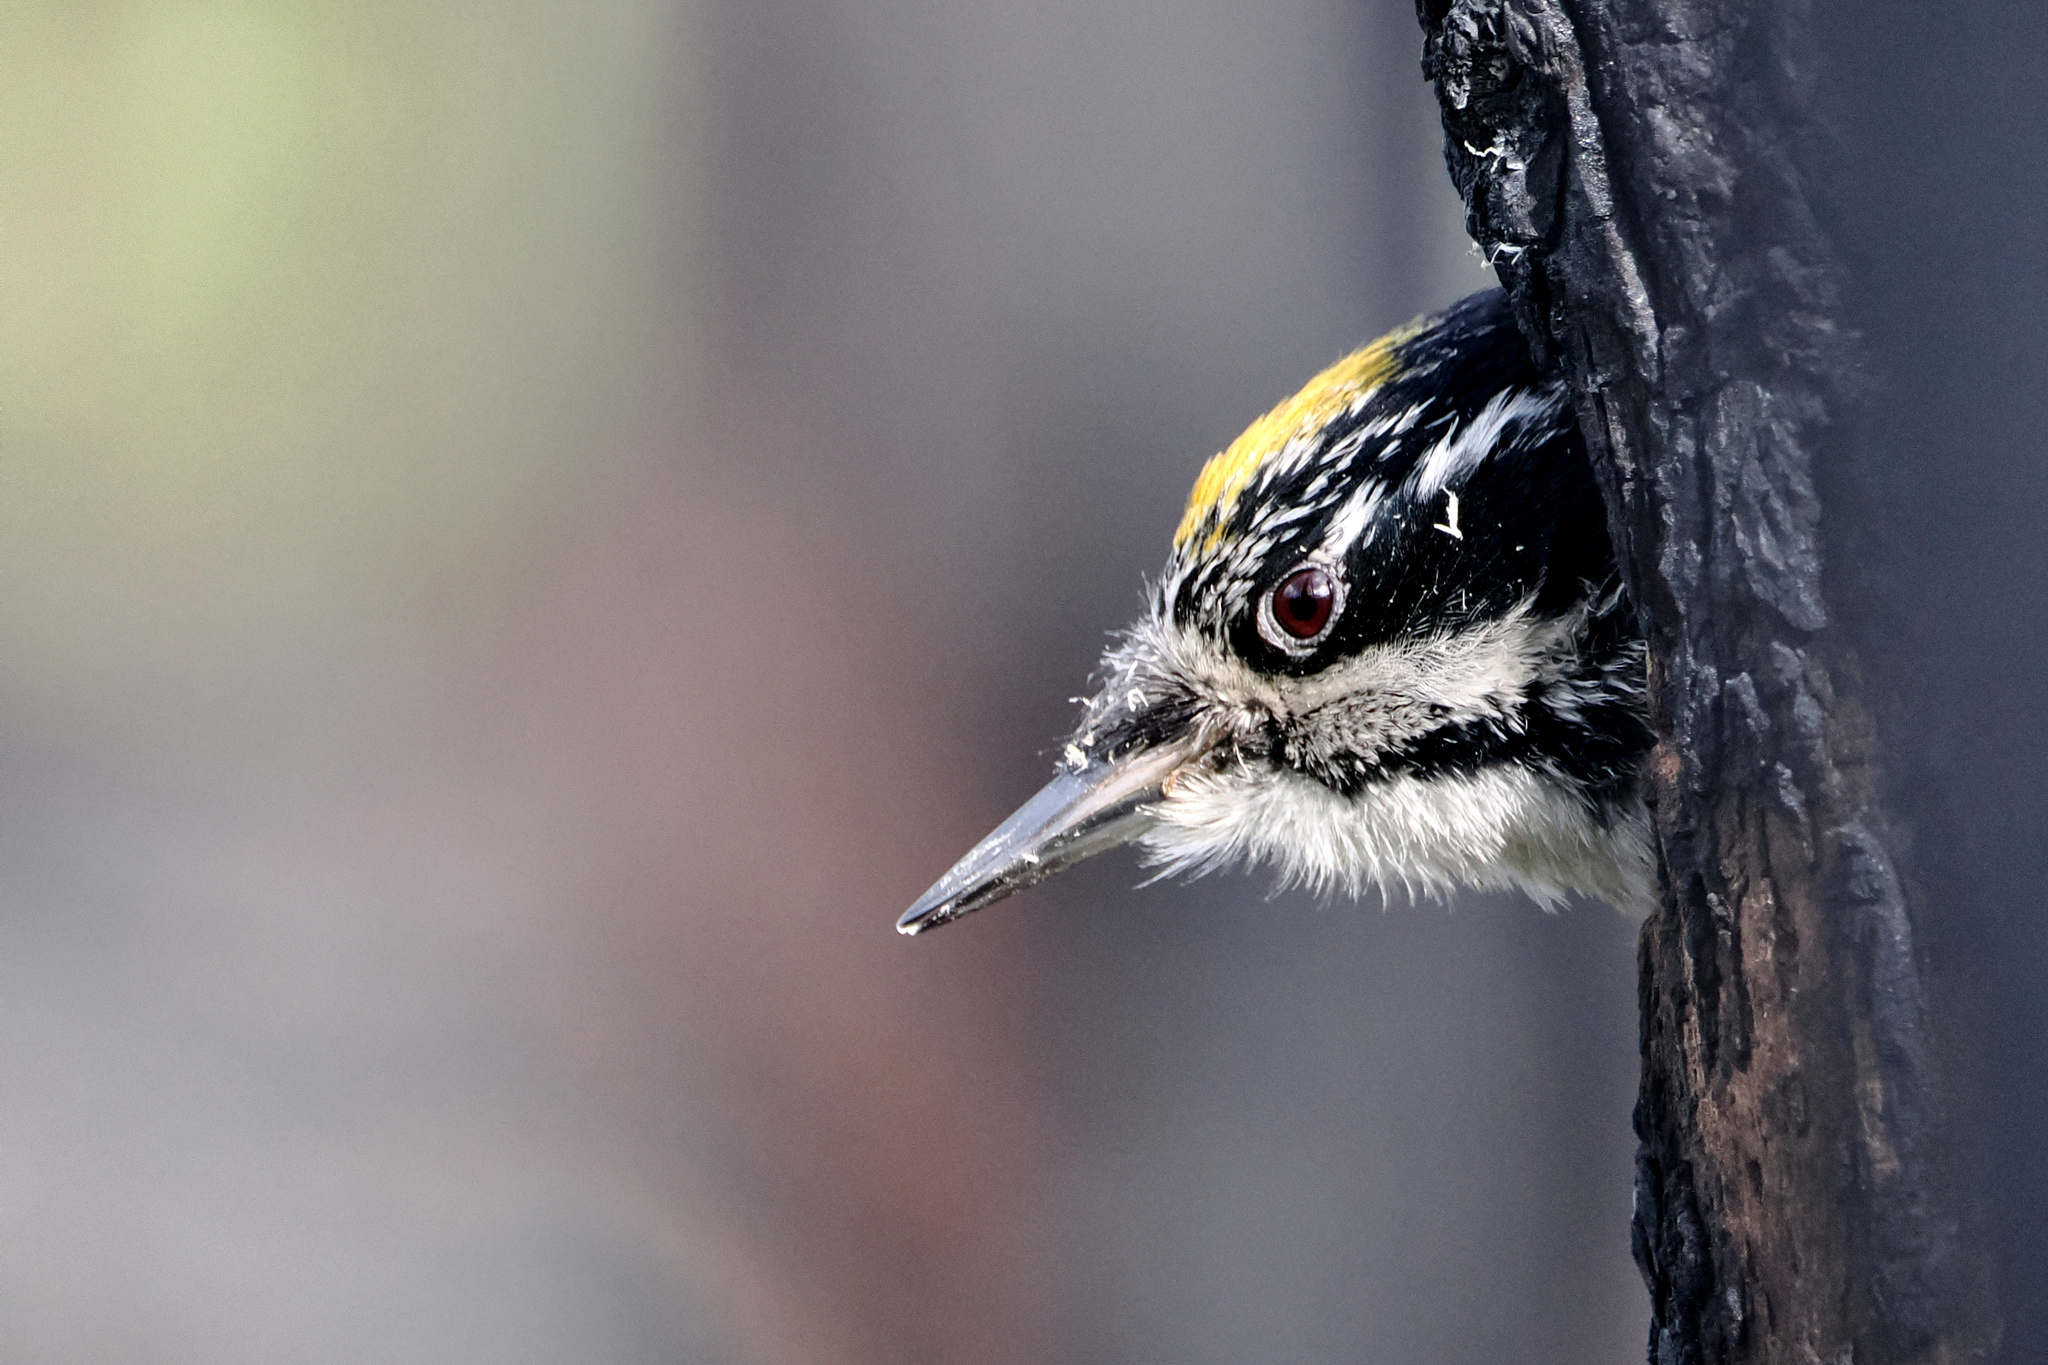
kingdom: Animalia
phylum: Chordata
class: Aves
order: Piciformes
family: Picidae
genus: Picoides
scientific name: Picoides dorsalis
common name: American three-toed woodpecker
